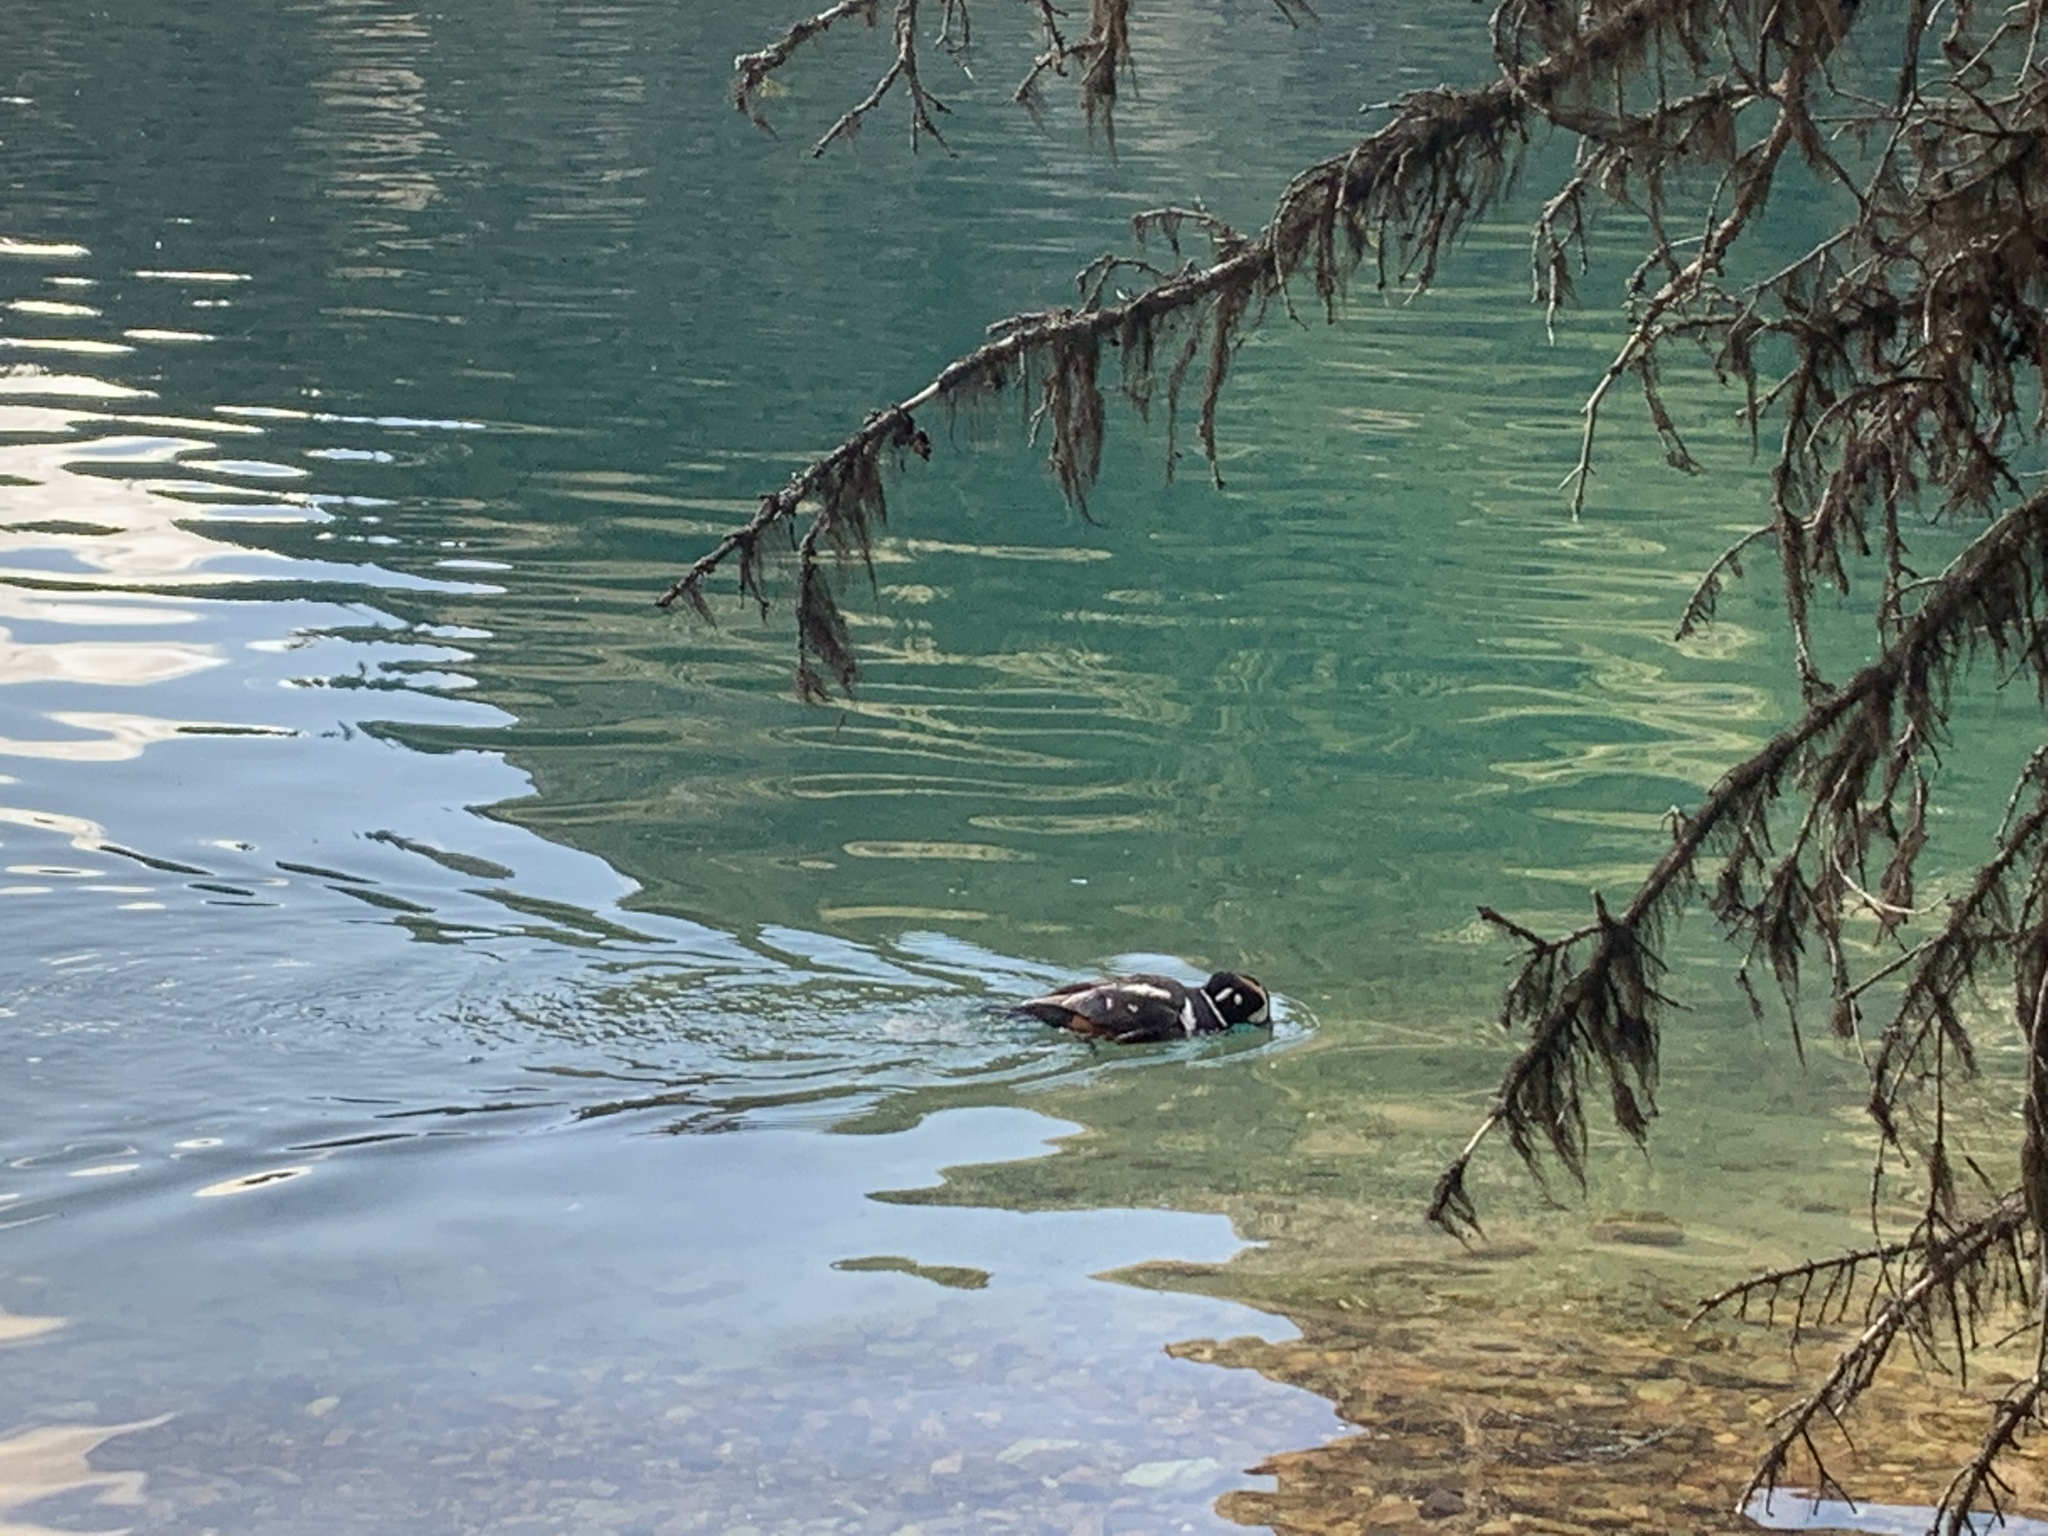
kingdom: Animalia
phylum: Chordata
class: Aves
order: Anseriformes
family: Anatidae
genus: Histrionicus
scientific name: Histrionicus histrionicus
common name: Harlequin duck
